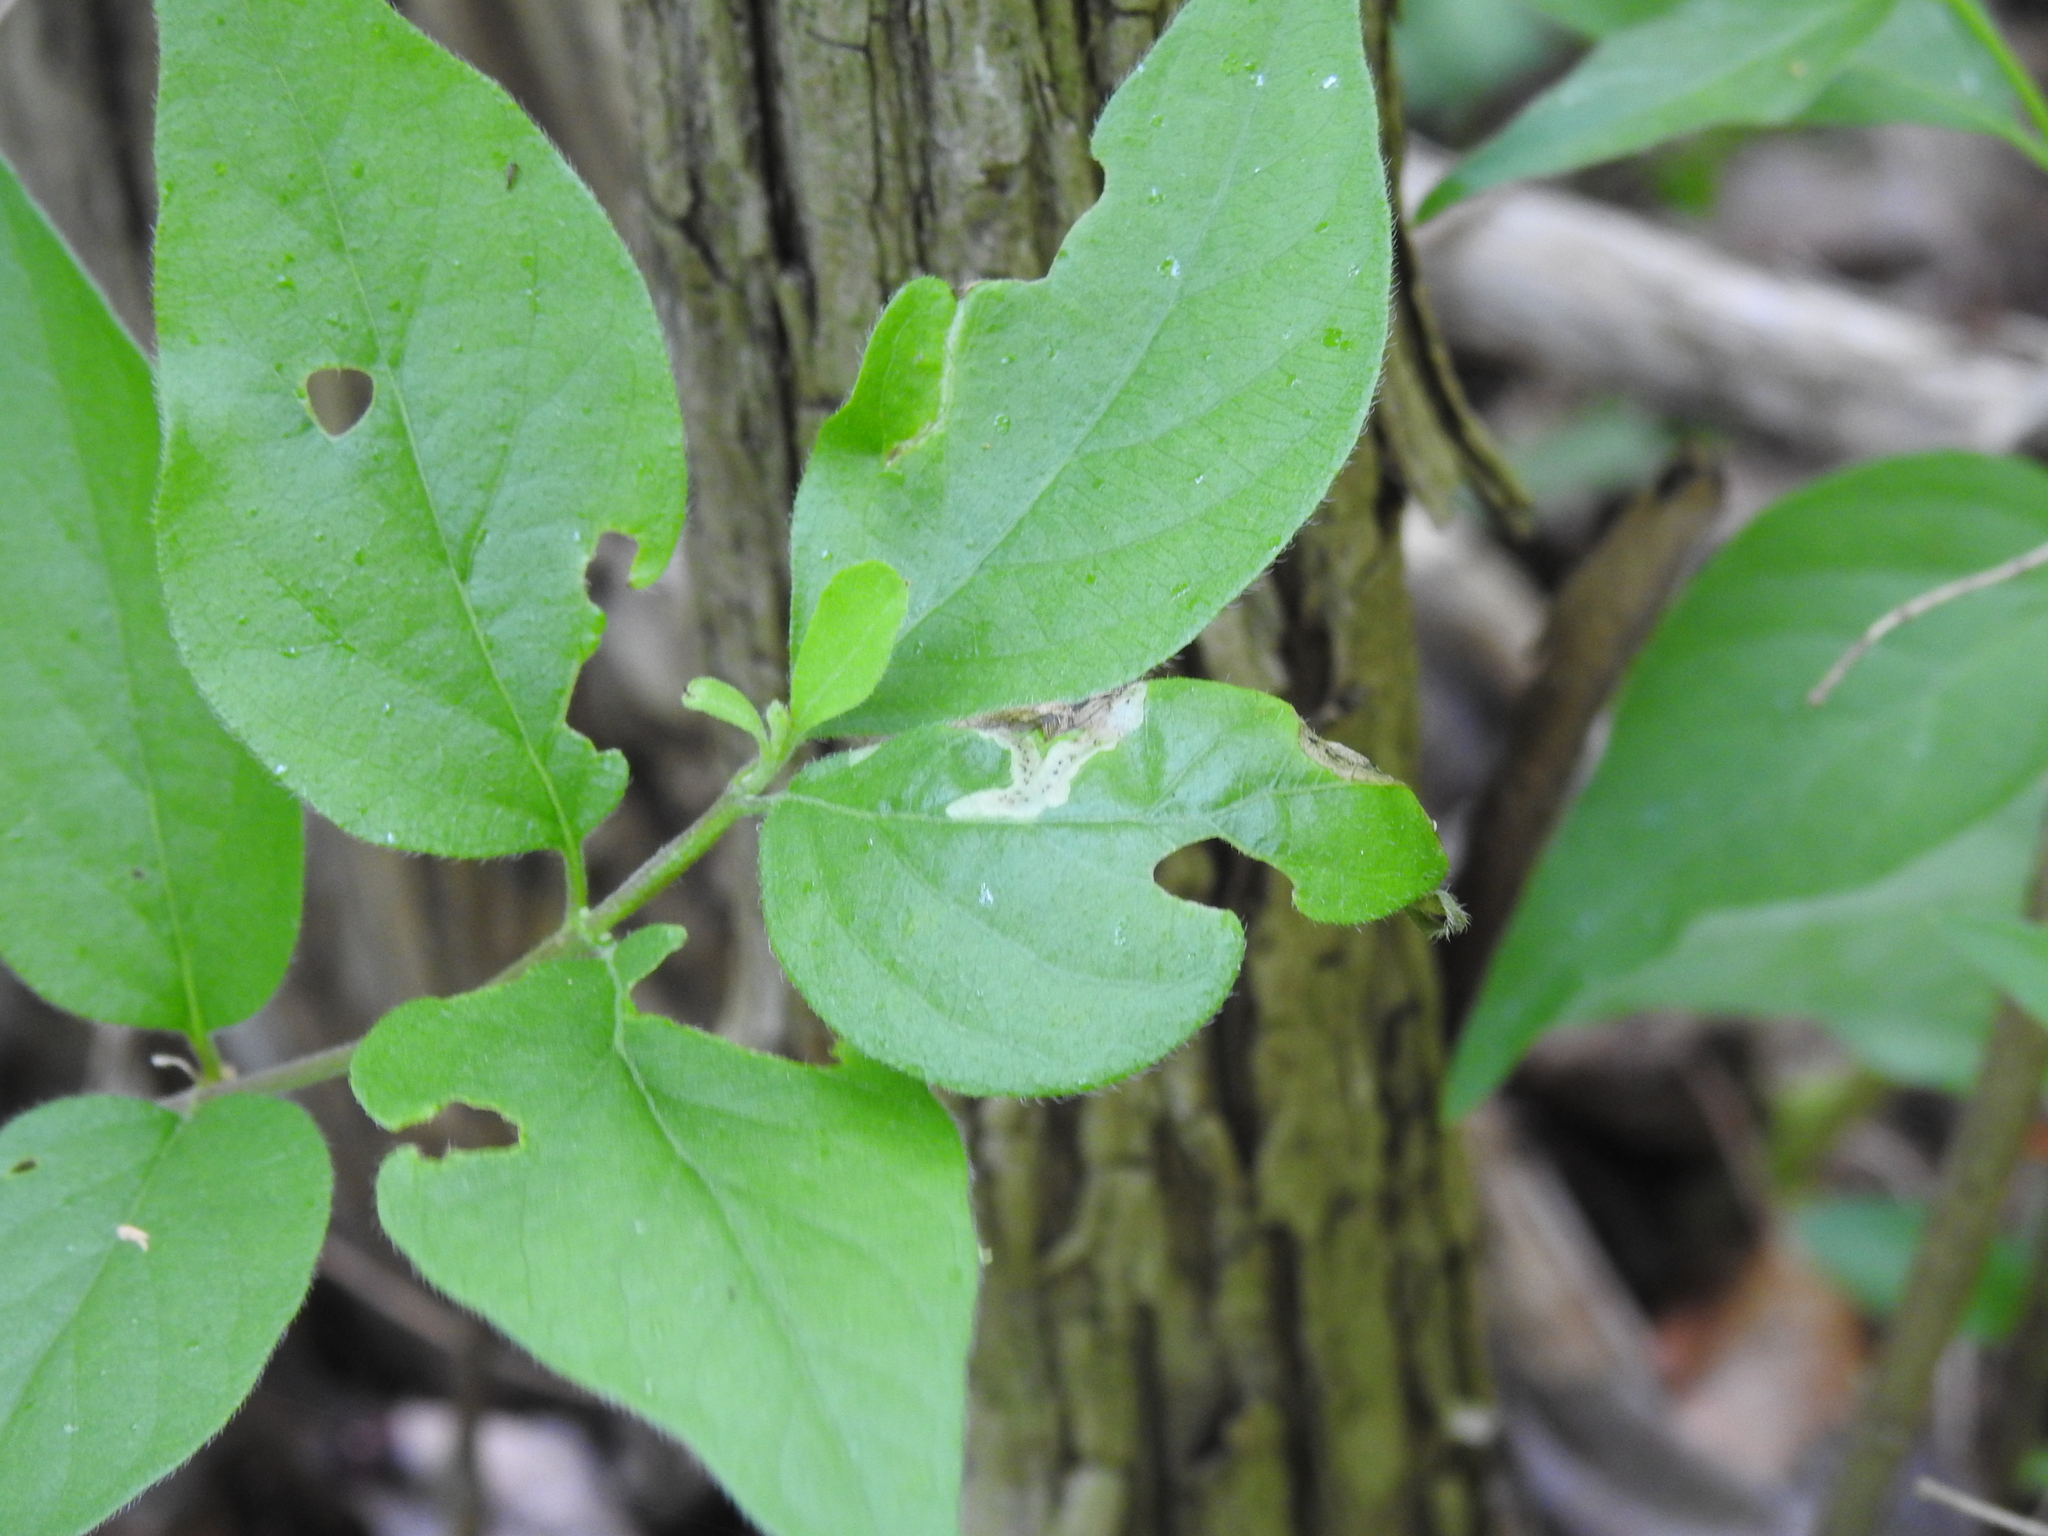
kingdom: Animalia
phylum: Arthropoda
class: Insecta
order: Diptera
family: Agromyzidae
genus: Aulagromyza
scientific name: Aulagromyza cornigera
